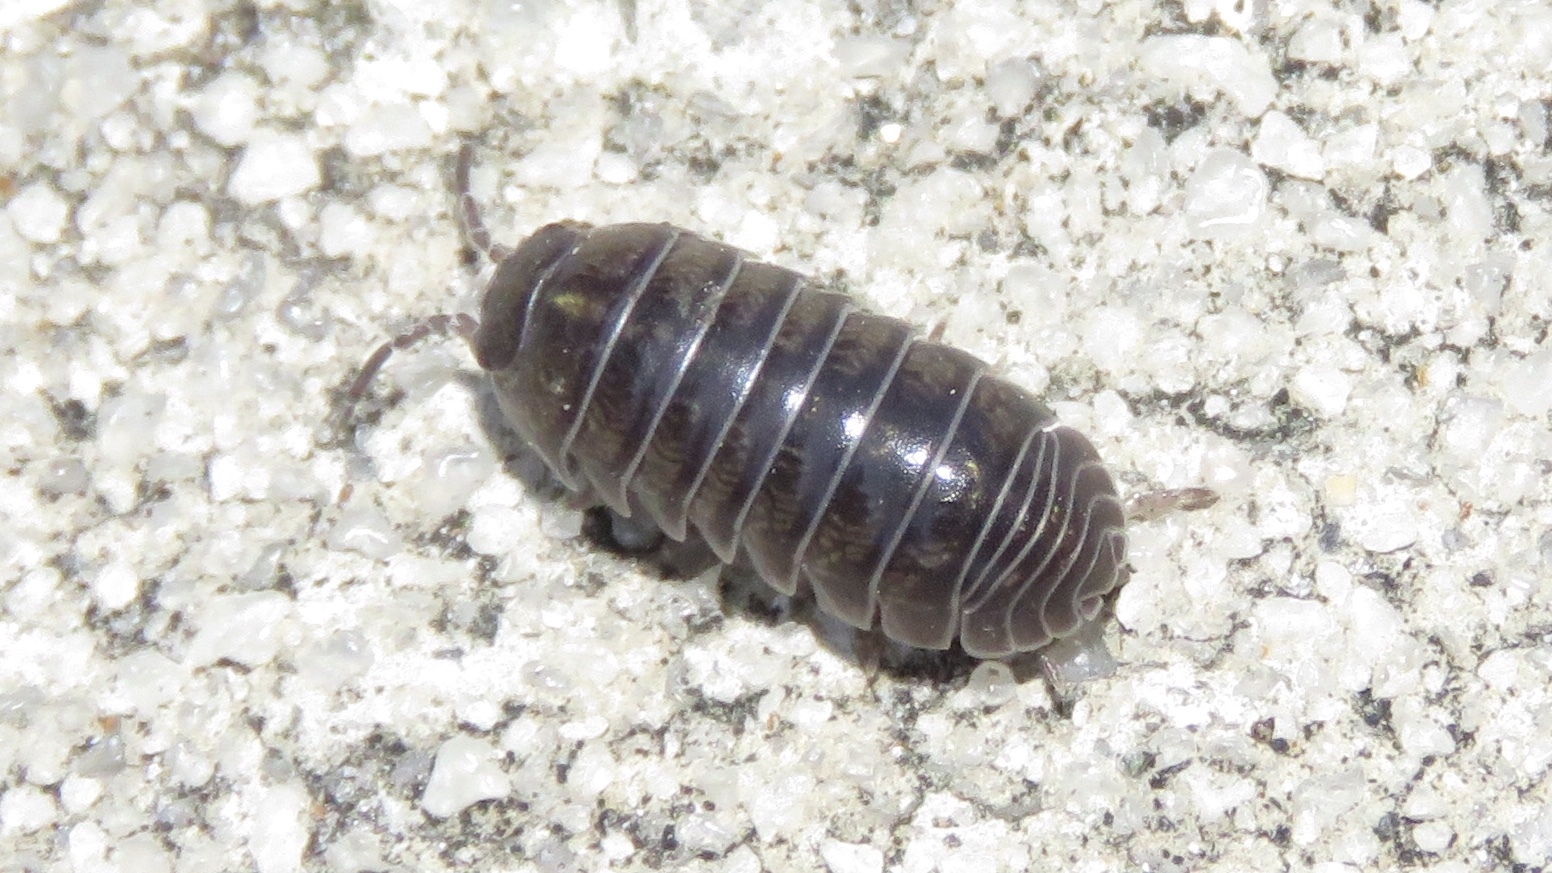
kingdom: Animalia
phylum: Arthropoda
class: Malacostraca
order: Isopoda
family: Armadillidiidae
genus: Armadillidium
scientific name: Armadillidium vulgare
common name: Common pill woodlouse
